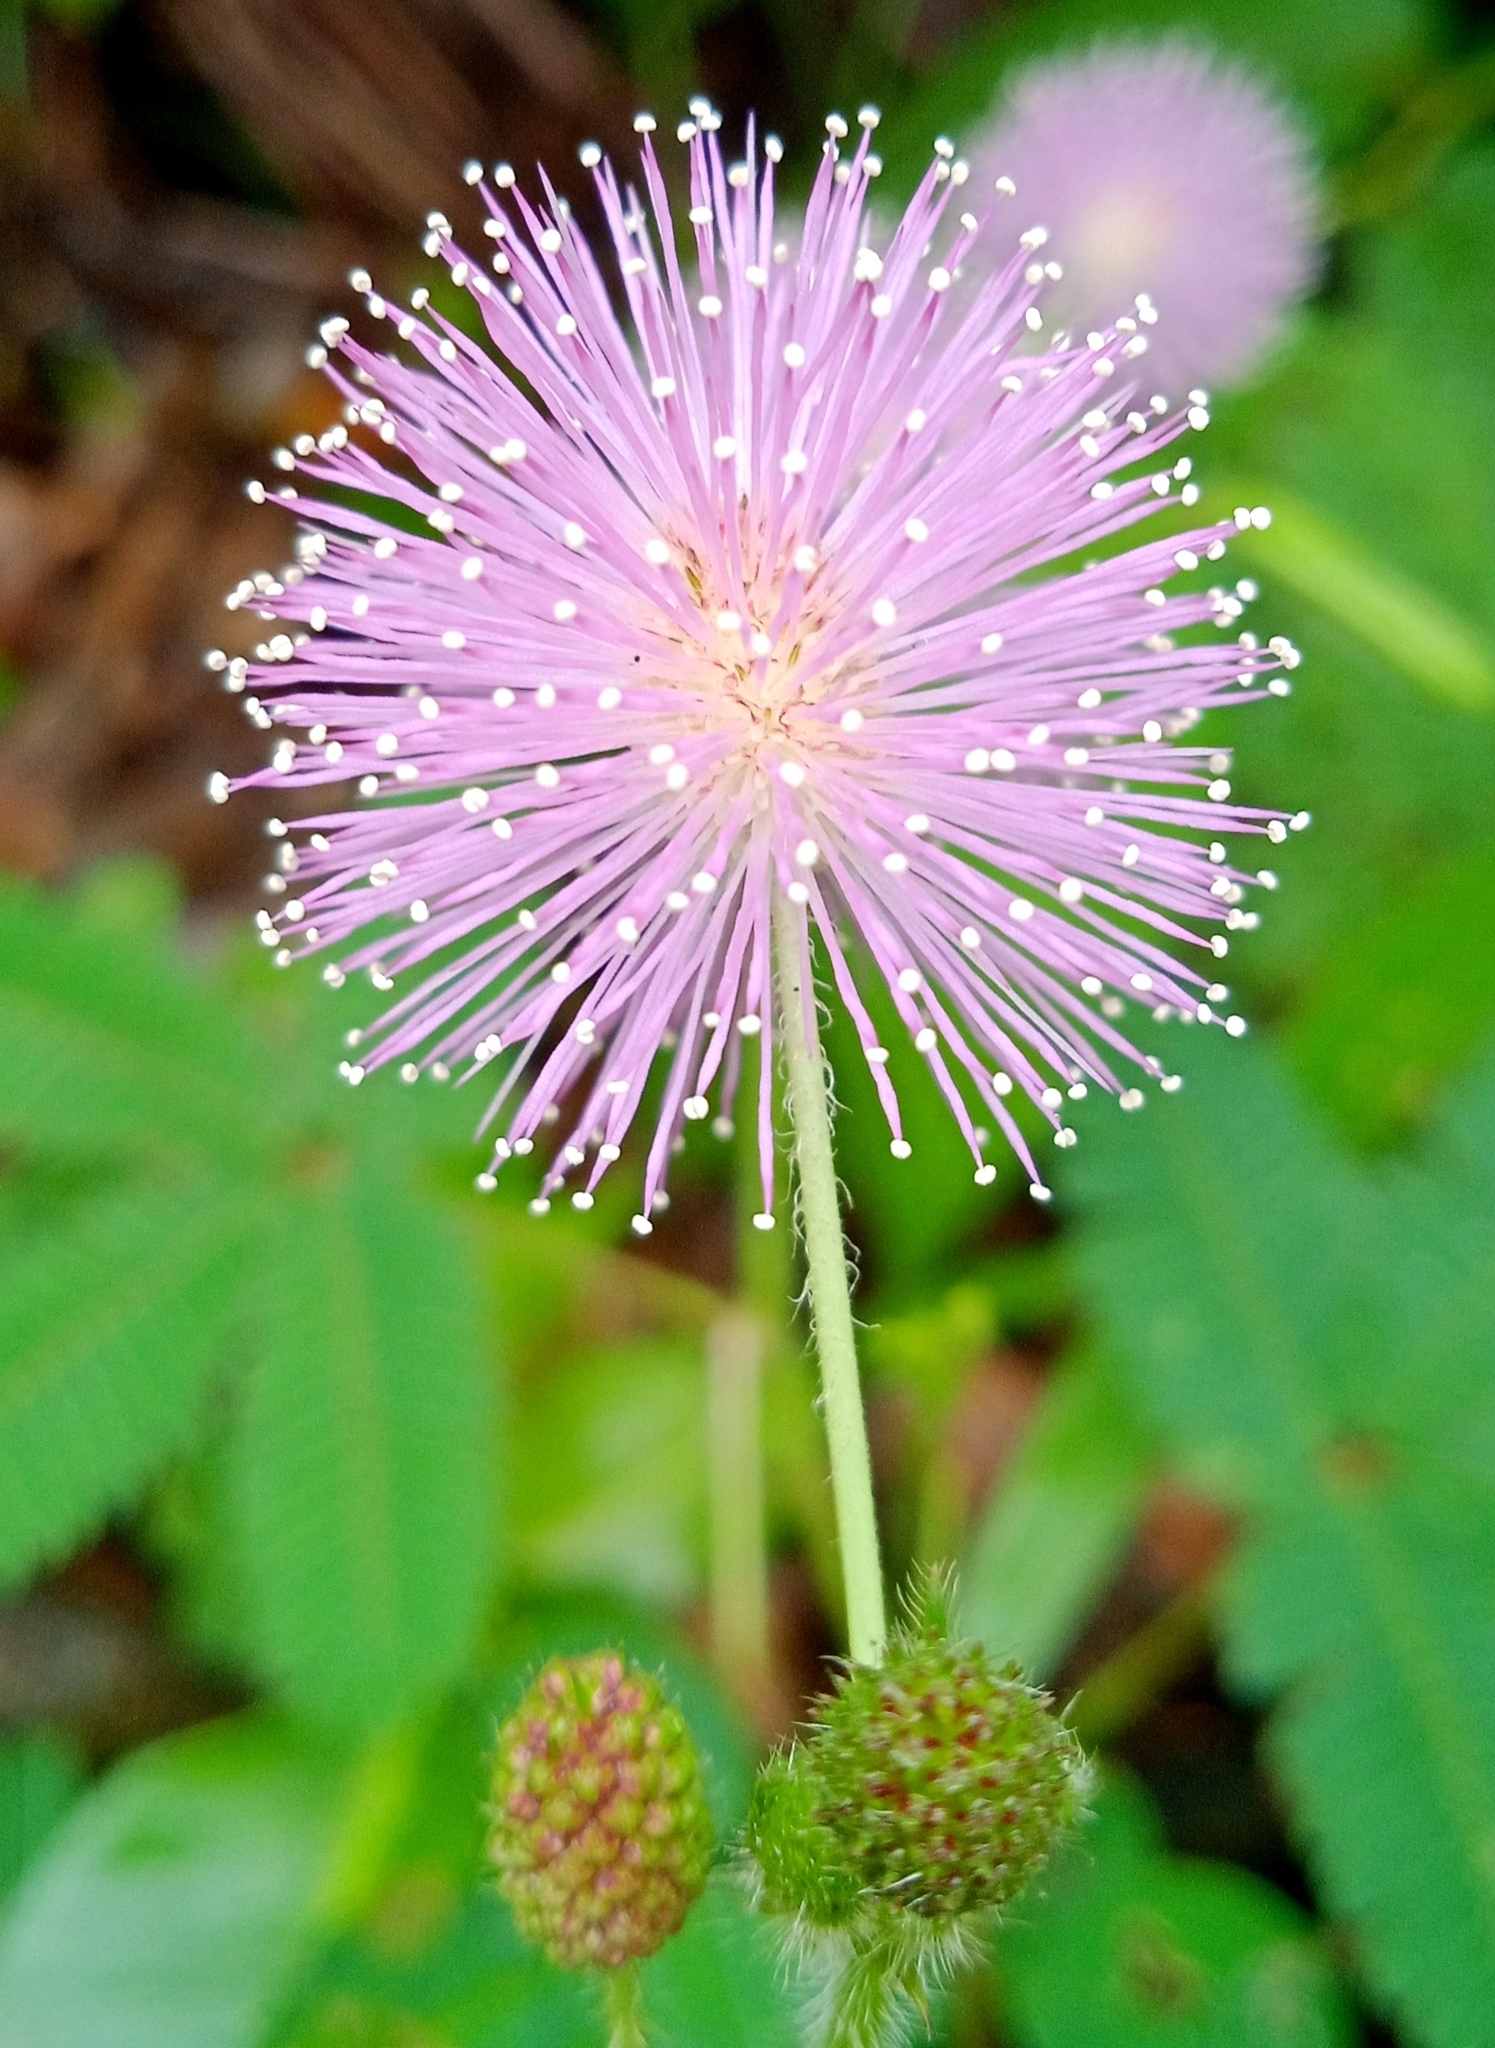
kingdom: Plantae
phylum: Tracheophyta
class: Magnoliopsida
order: Fabales
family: Fabaceae
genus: Mimosa
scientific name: Mimosa pudica
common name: Sensitive plant
